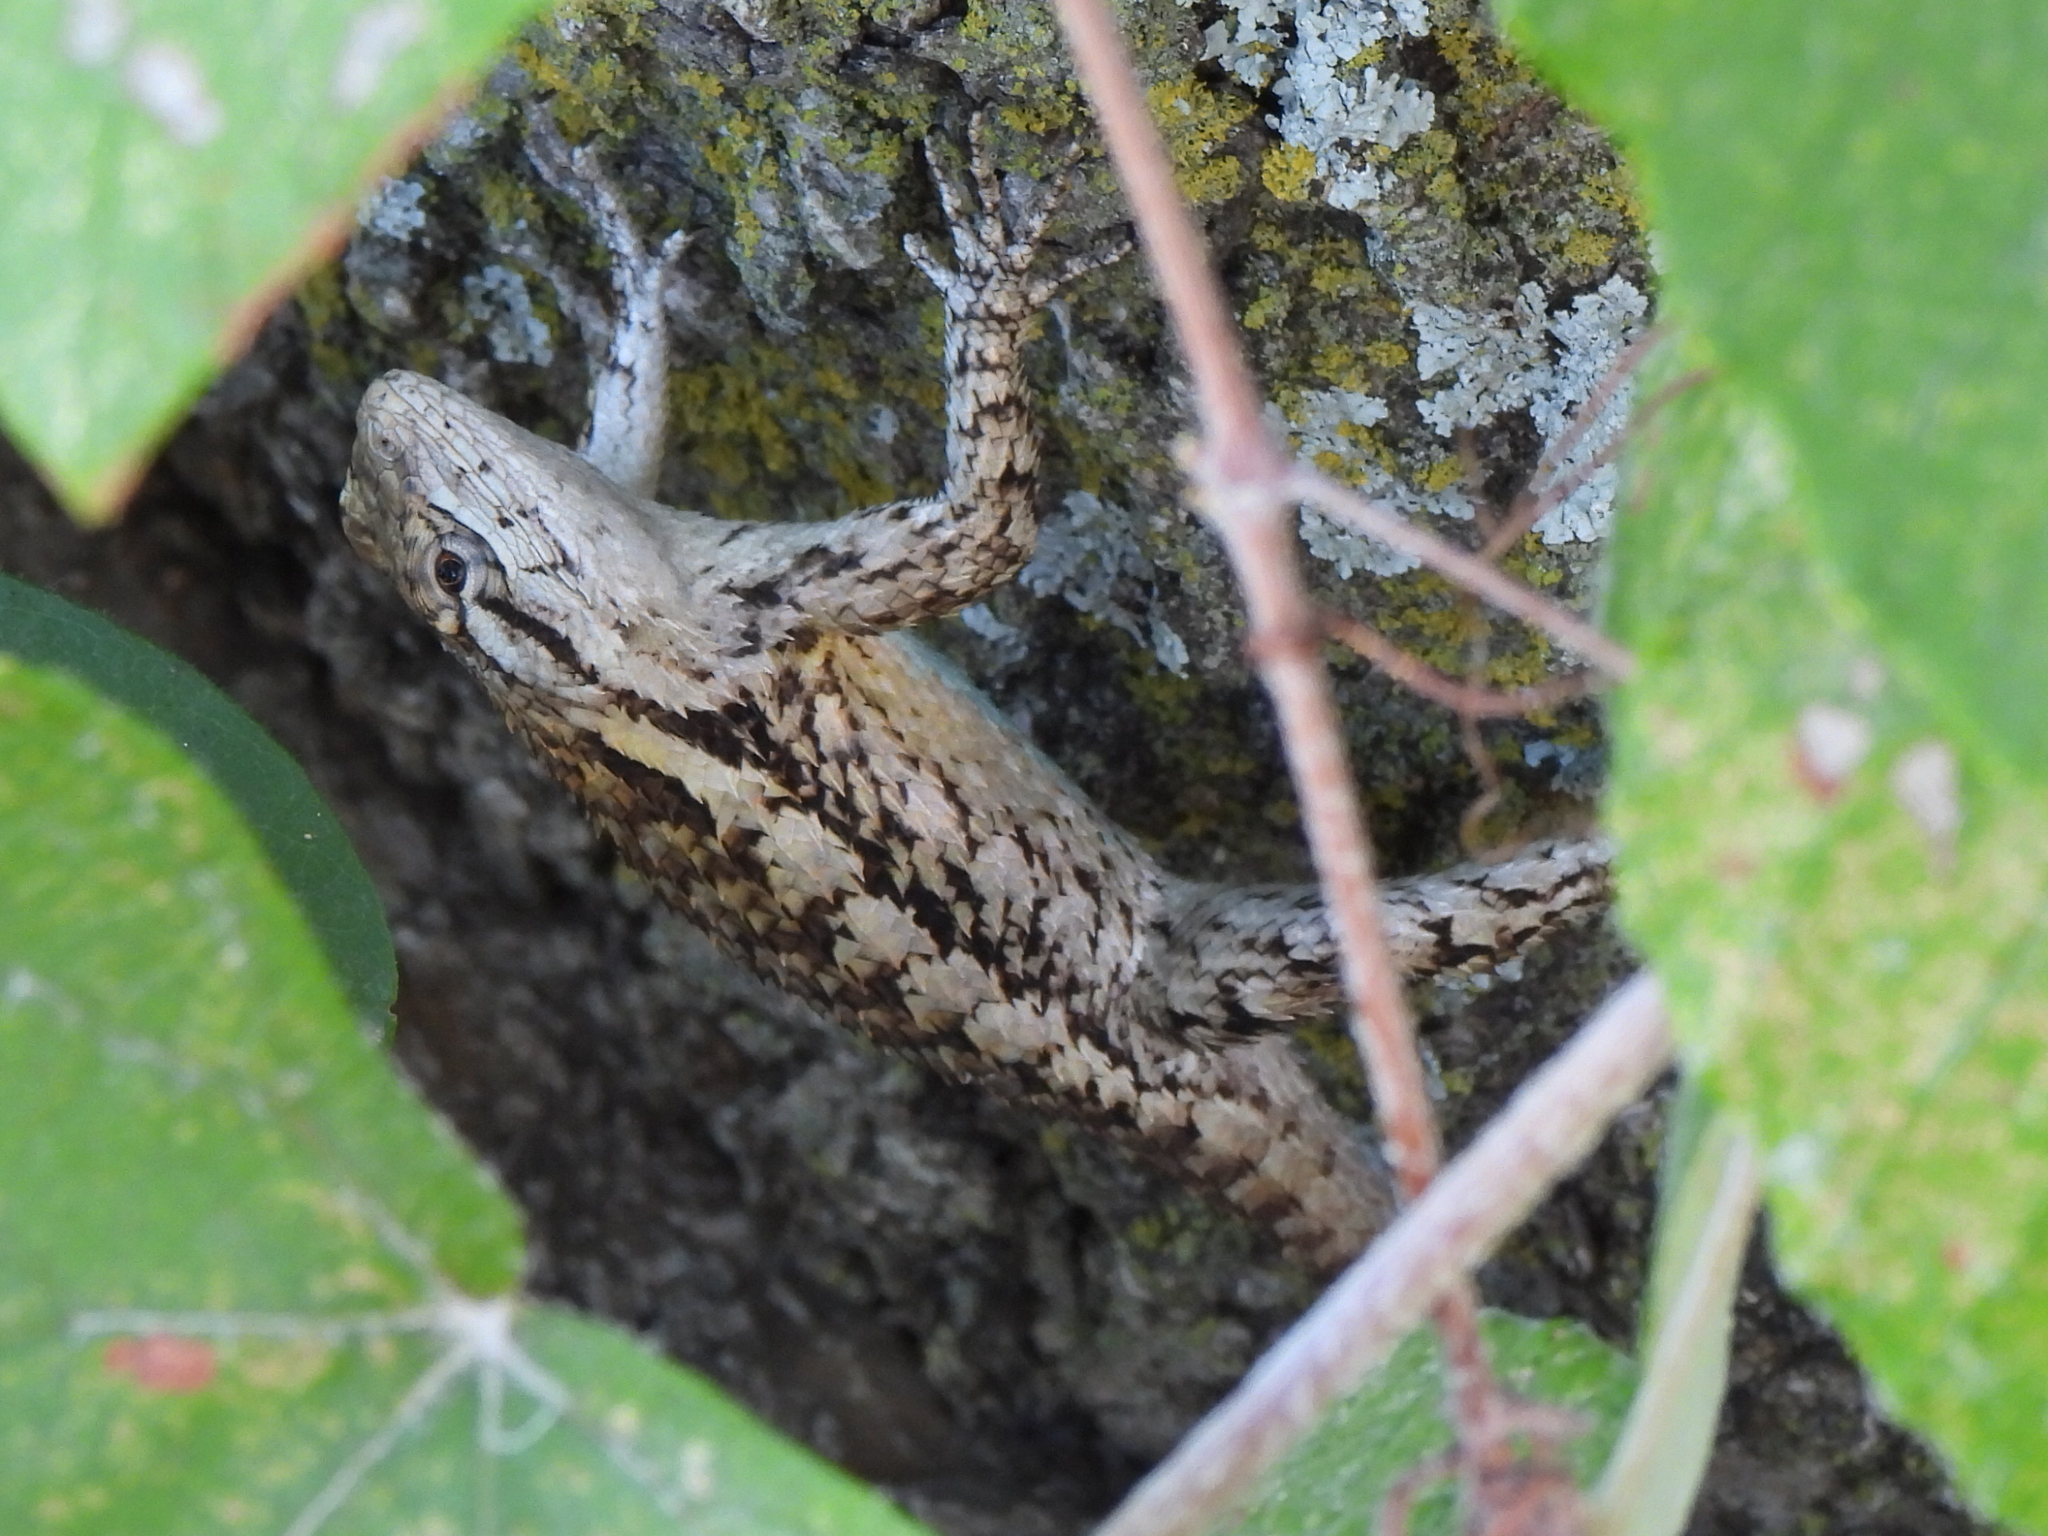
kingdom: Animalia
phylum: Chordata
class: Squamata
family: Phrynosomatidae
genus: Sceloporus
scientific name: Sceloporus olivaceus
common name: Texas spiny lizard
